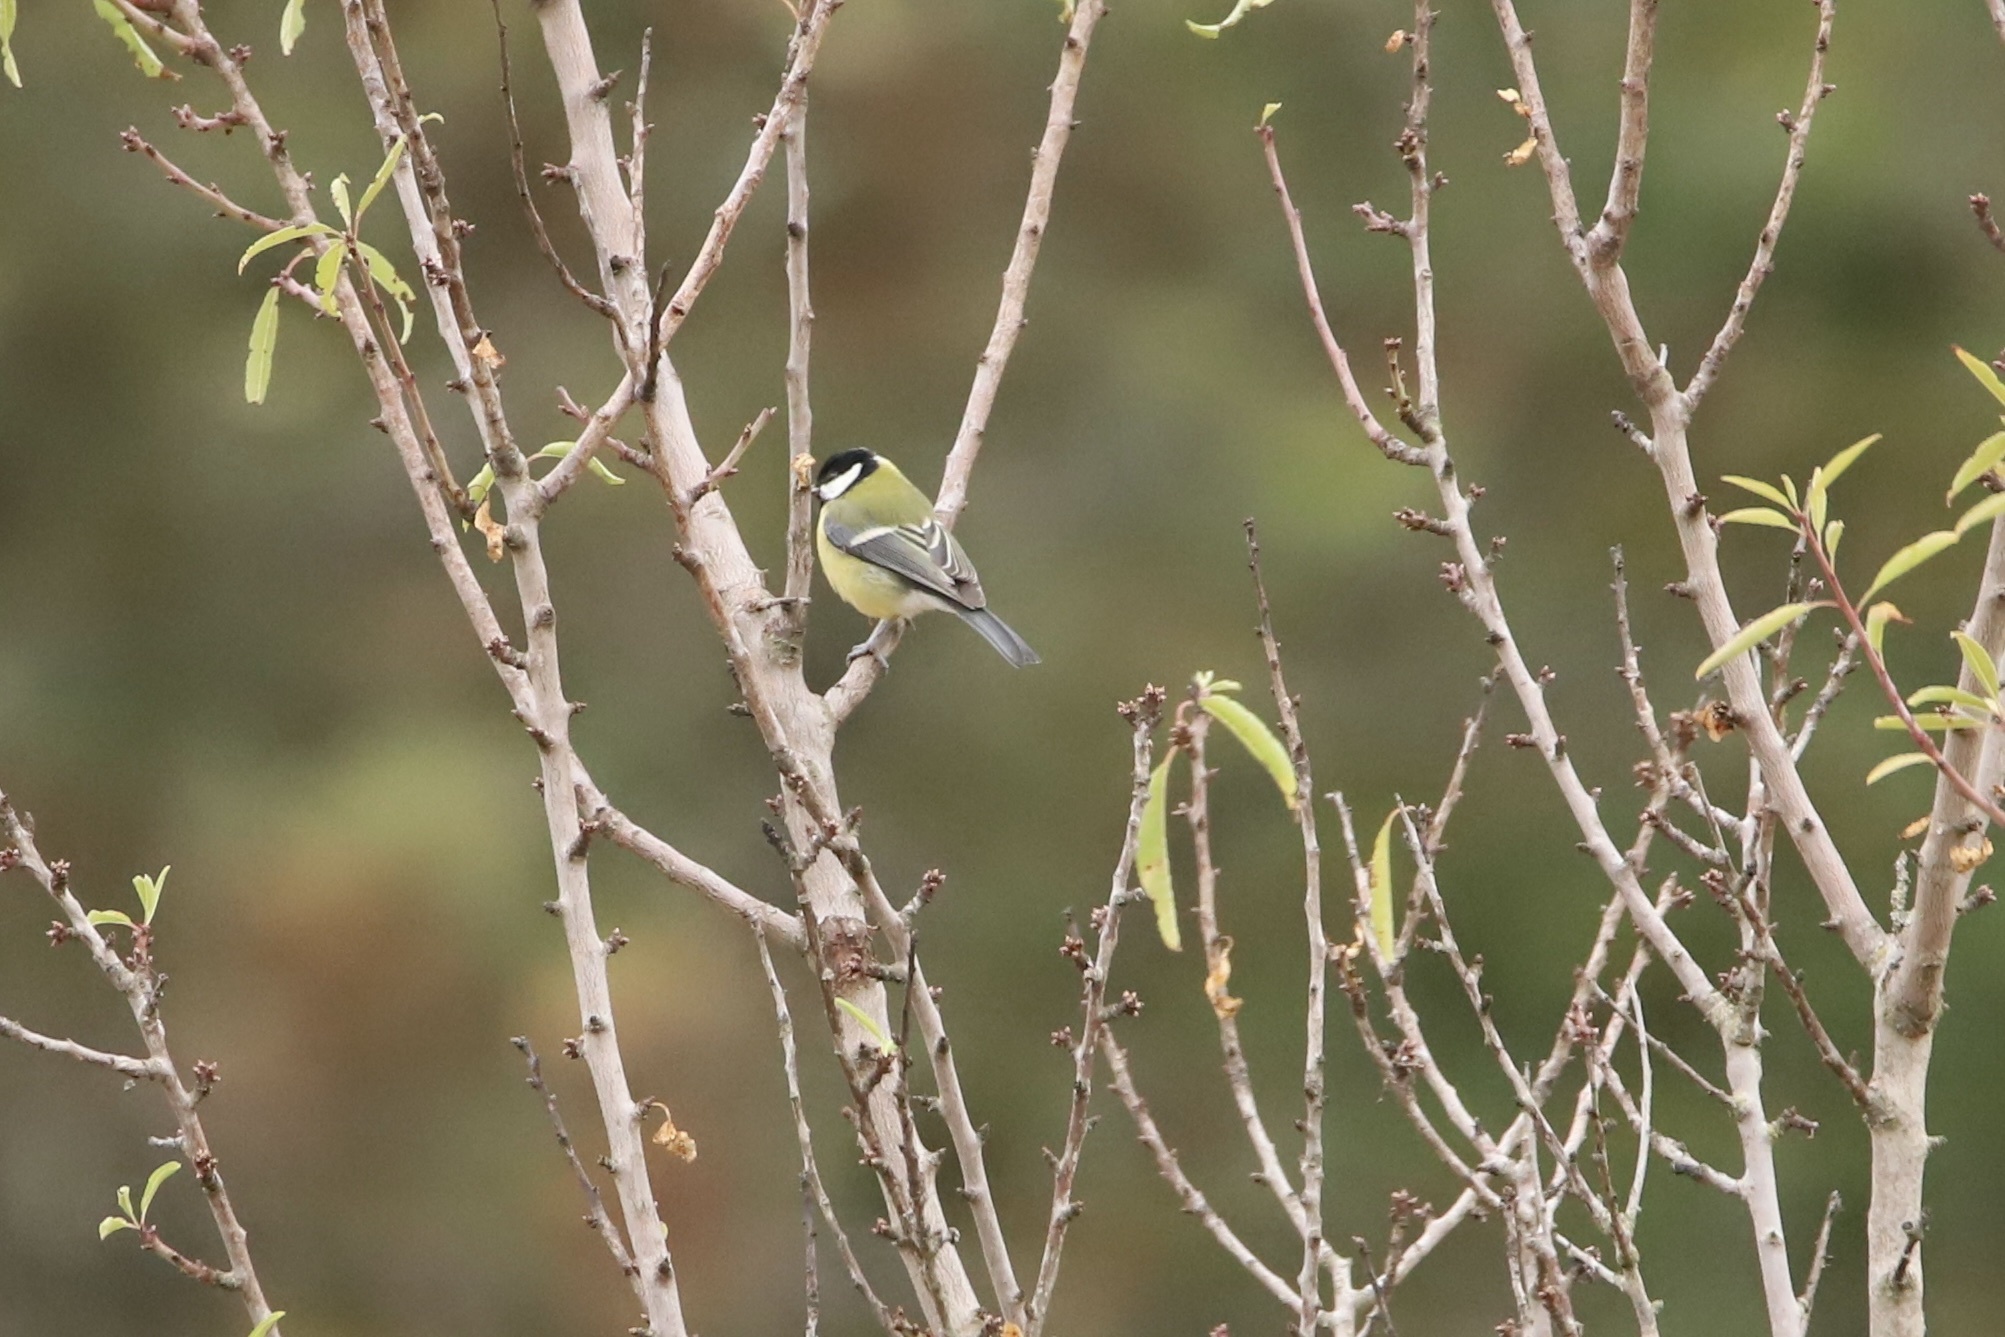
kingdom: Animalia
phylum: Chordata
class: Aves
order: Passeriformes
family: Paridae
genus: Parus
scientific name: Parus major
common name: Great tit
